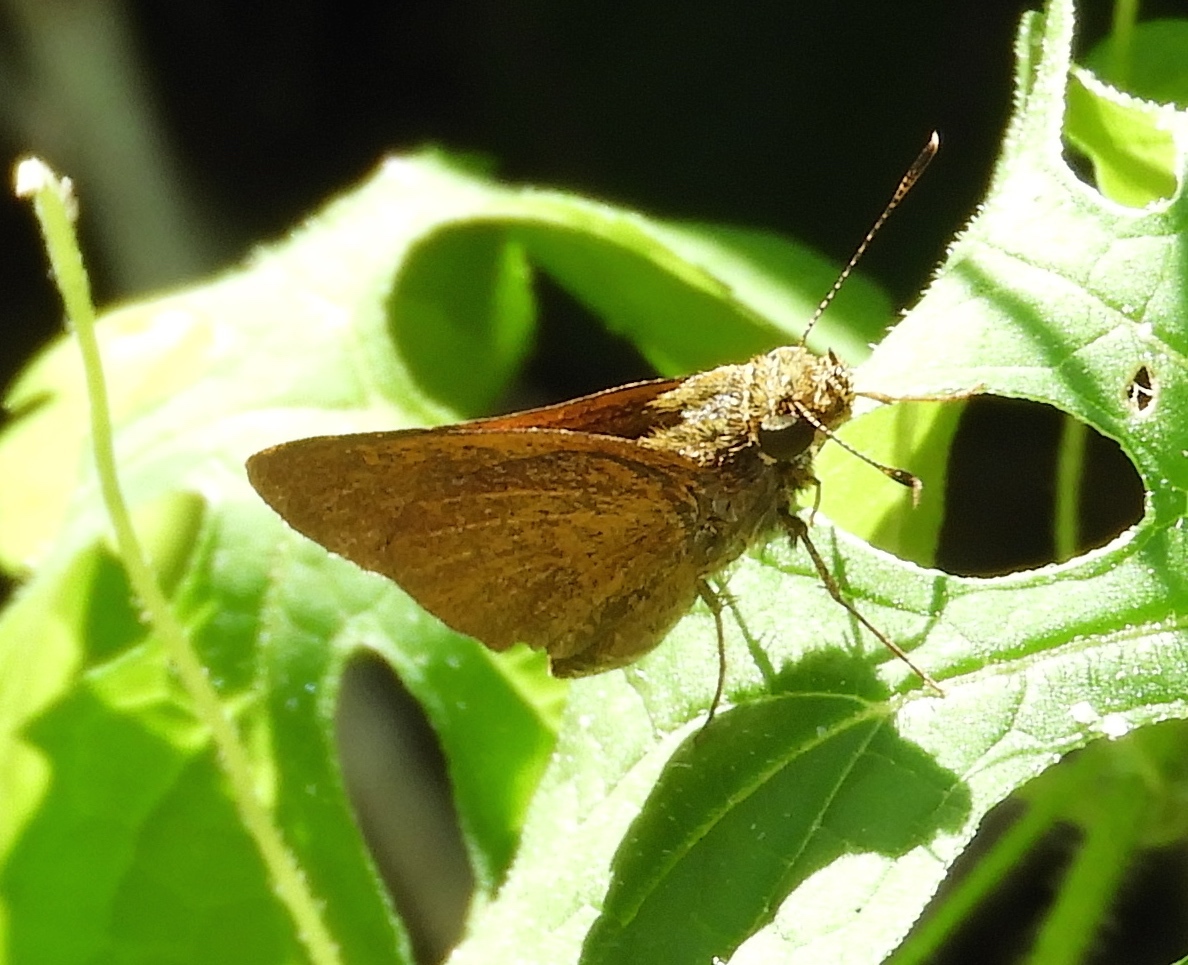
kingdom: Animalia
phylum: Arthropoda
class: Insecta
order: Lepidoptera
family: Hesperiidae
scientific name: Hesperiidae
